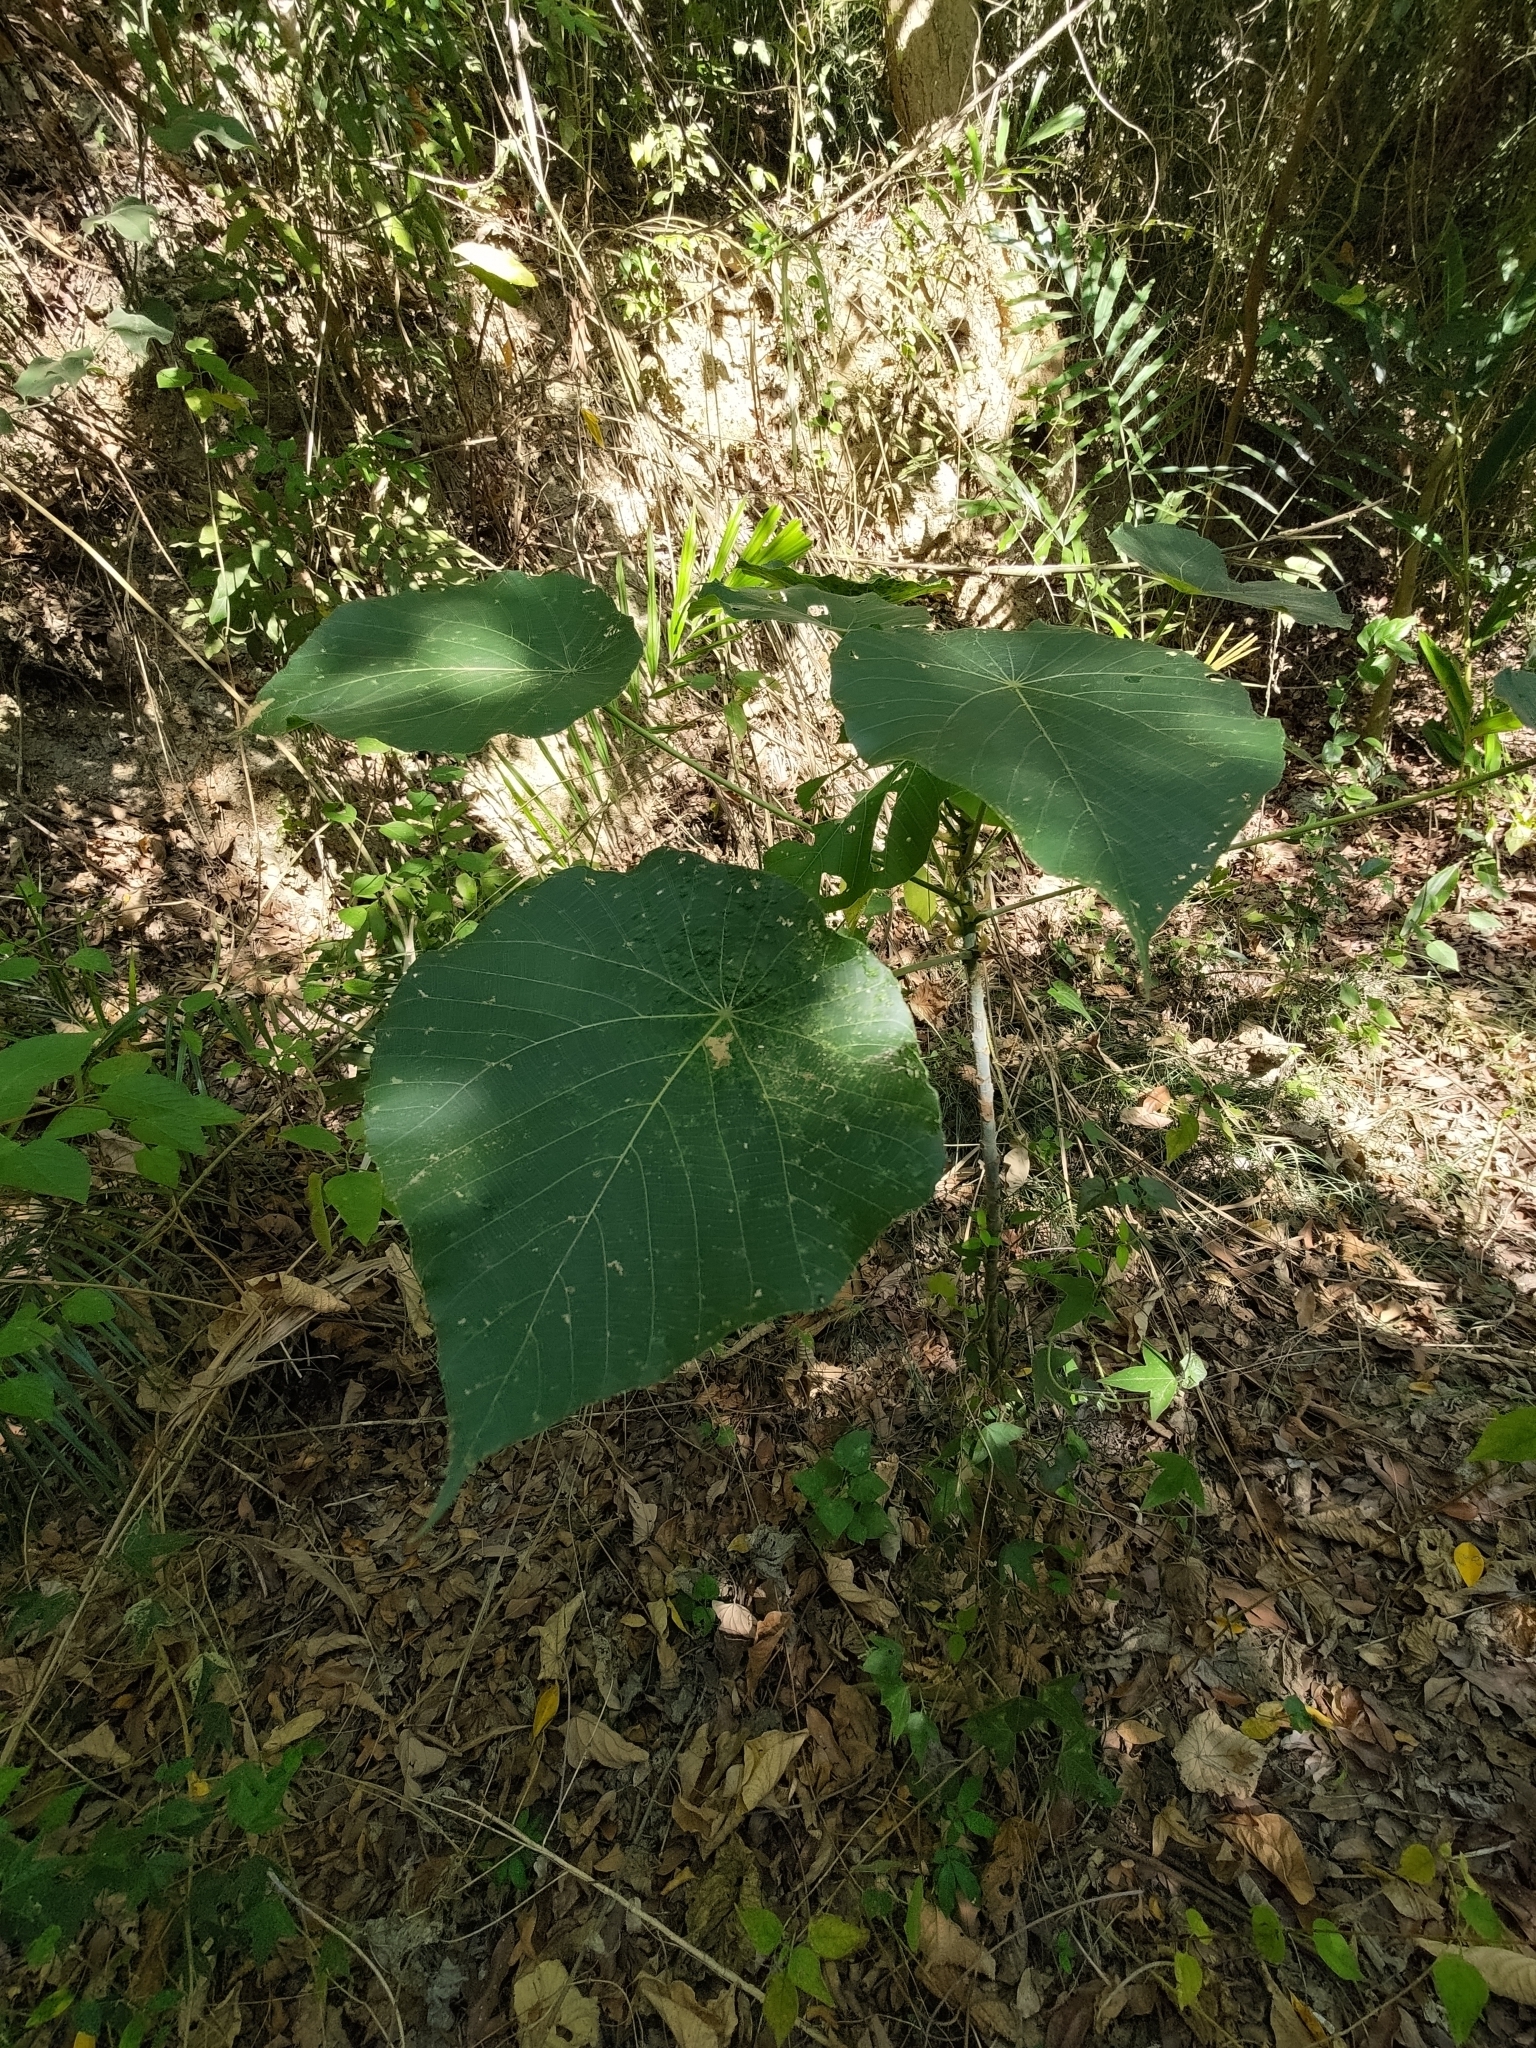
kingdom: Plantae
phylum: Tracheophyta
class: Magnoliopsida
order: Malpighiales
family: Euphorbiaceae
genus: Macaranga
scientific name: Macaranga tanarius
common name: Parasol leaf tree
